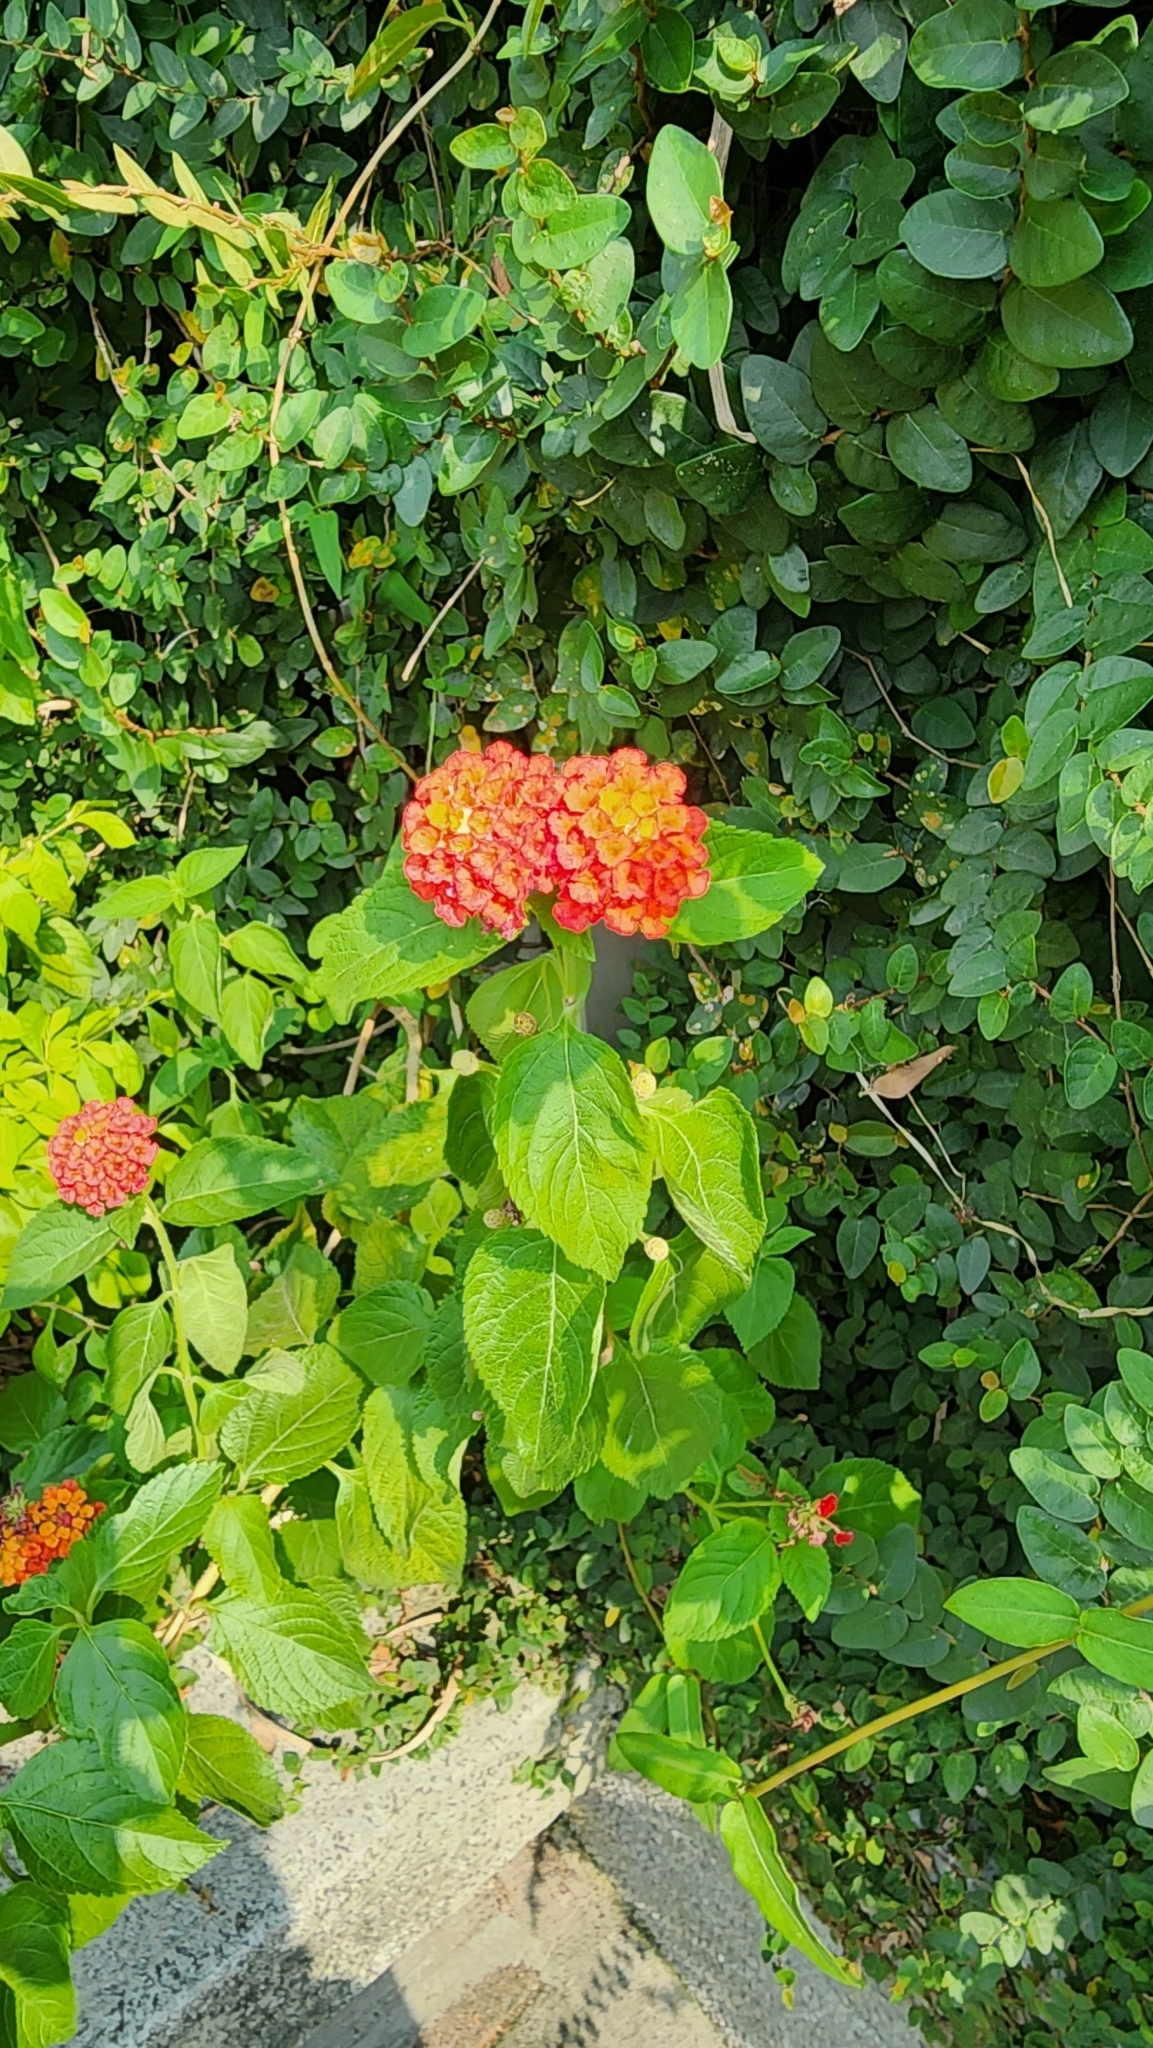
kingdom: Plantae
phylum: Tracheophyta
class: Magnoliopsida
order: Lamiales
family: Verbenaceae
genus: Lantana
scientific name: Lantana camara
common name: Lantana
